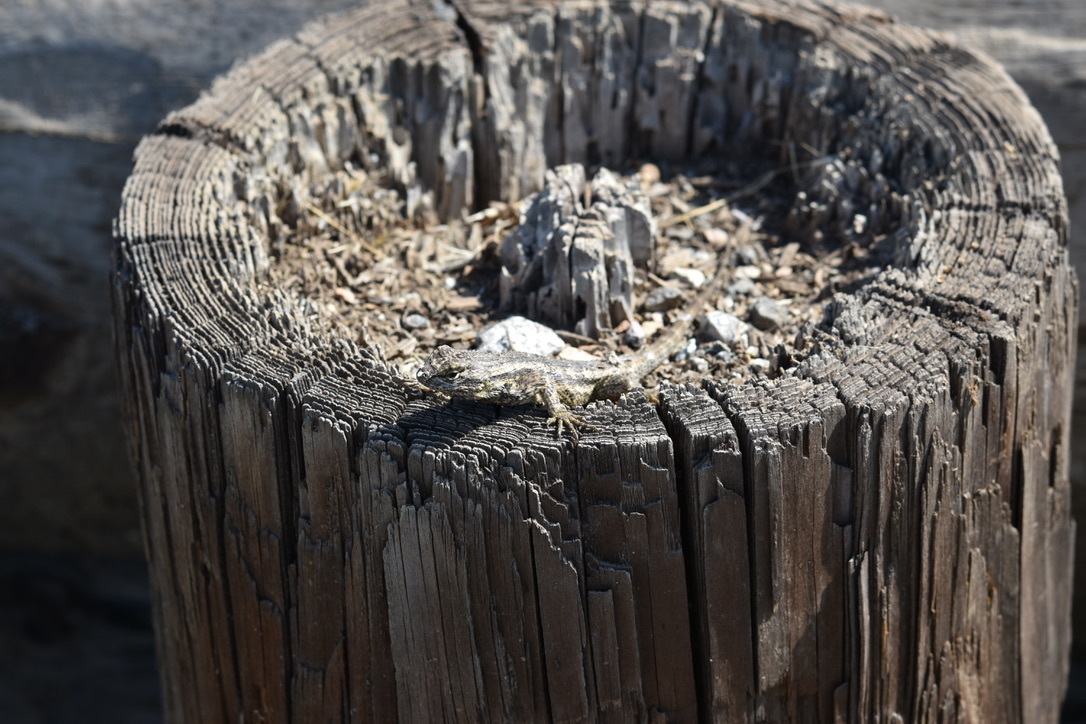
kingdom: Animalia
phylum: Chordata
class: Squamata
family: Phrynosomatidae
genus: Sceloporus
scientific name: Sceloporus occidentalis
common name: Western fence lizard
